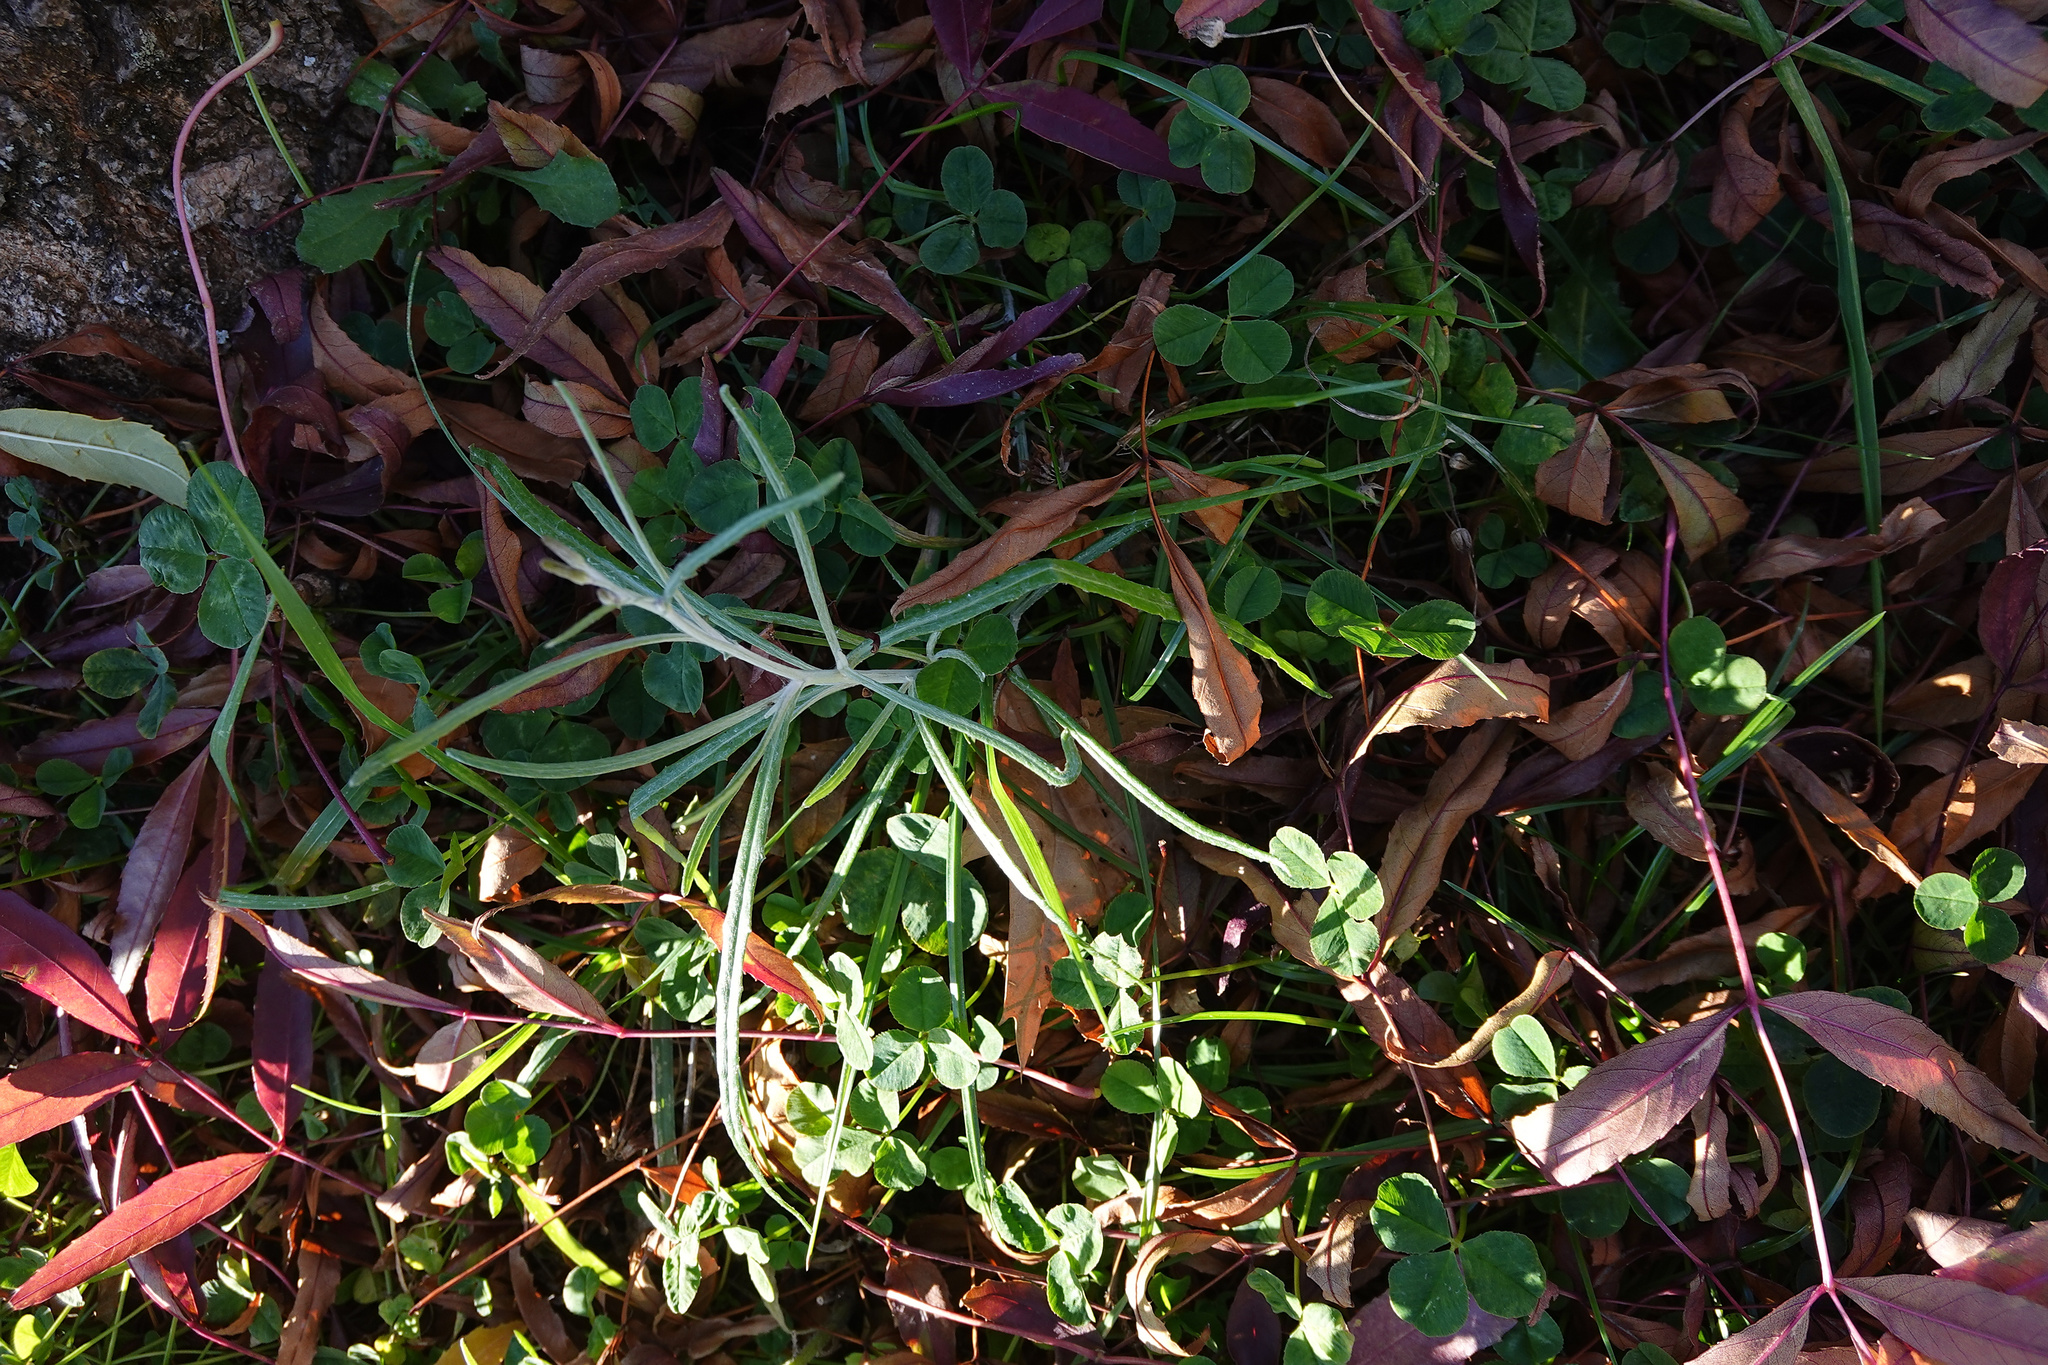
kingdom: Plantae
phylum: Tracheophyta
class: Magnoliopsida
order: Asterales
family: Asteraceae
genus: Senecio
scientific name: Senecio quadridentatus
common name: Cotton fireweed
